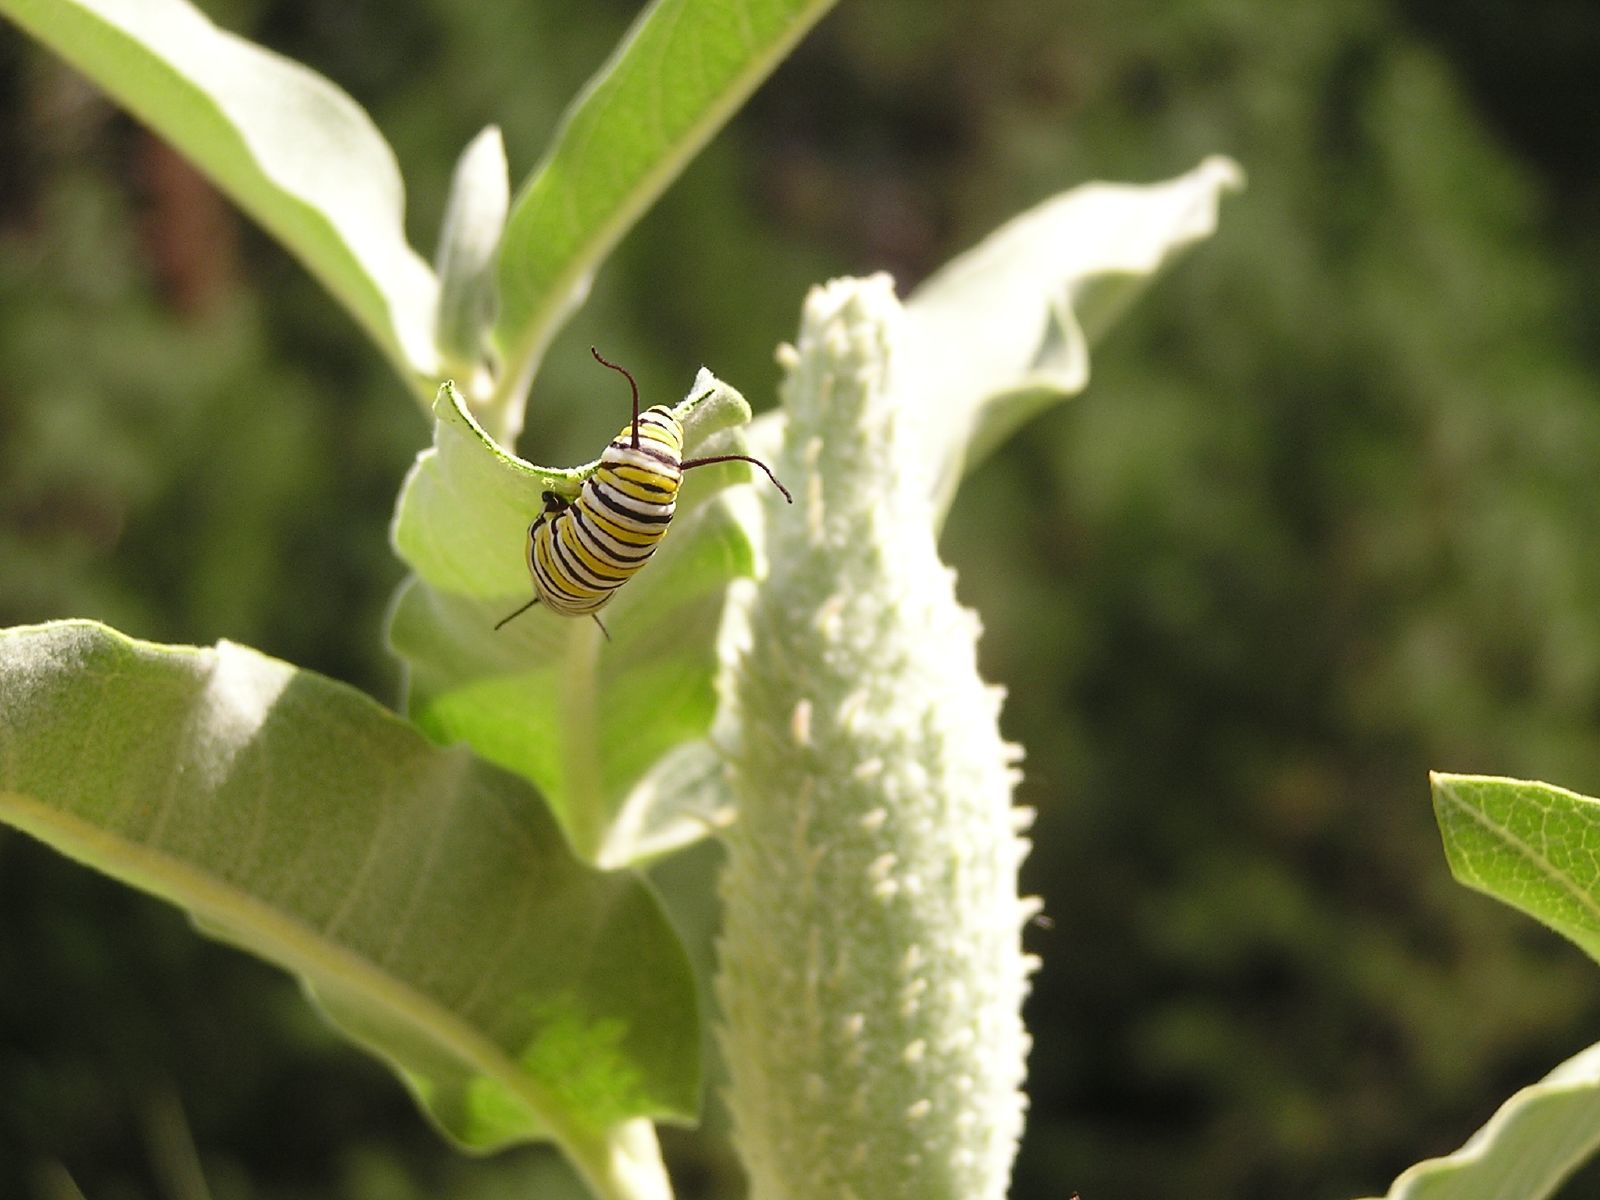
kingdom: Plantae
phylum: Tracheophyta
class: Magnoliopsida
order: Gentianales
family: Apocynaceae
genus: Asclepias
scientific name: Asclepias speciosa
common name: Showy milkweed
